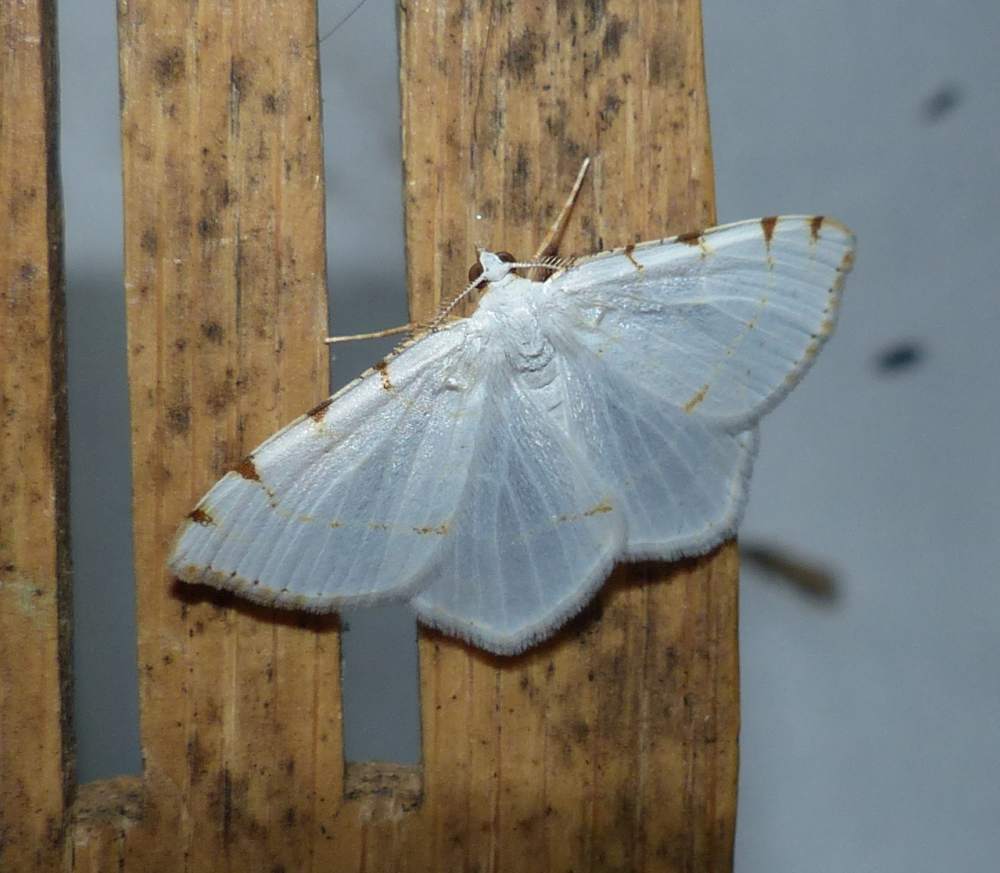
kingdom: Animalia
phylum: Arthropoda
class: Insecta
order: Lepidoptera
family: Geometridae
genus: Macaria
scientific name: Macaria pustularia
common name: Lesser maple spanworm moth
